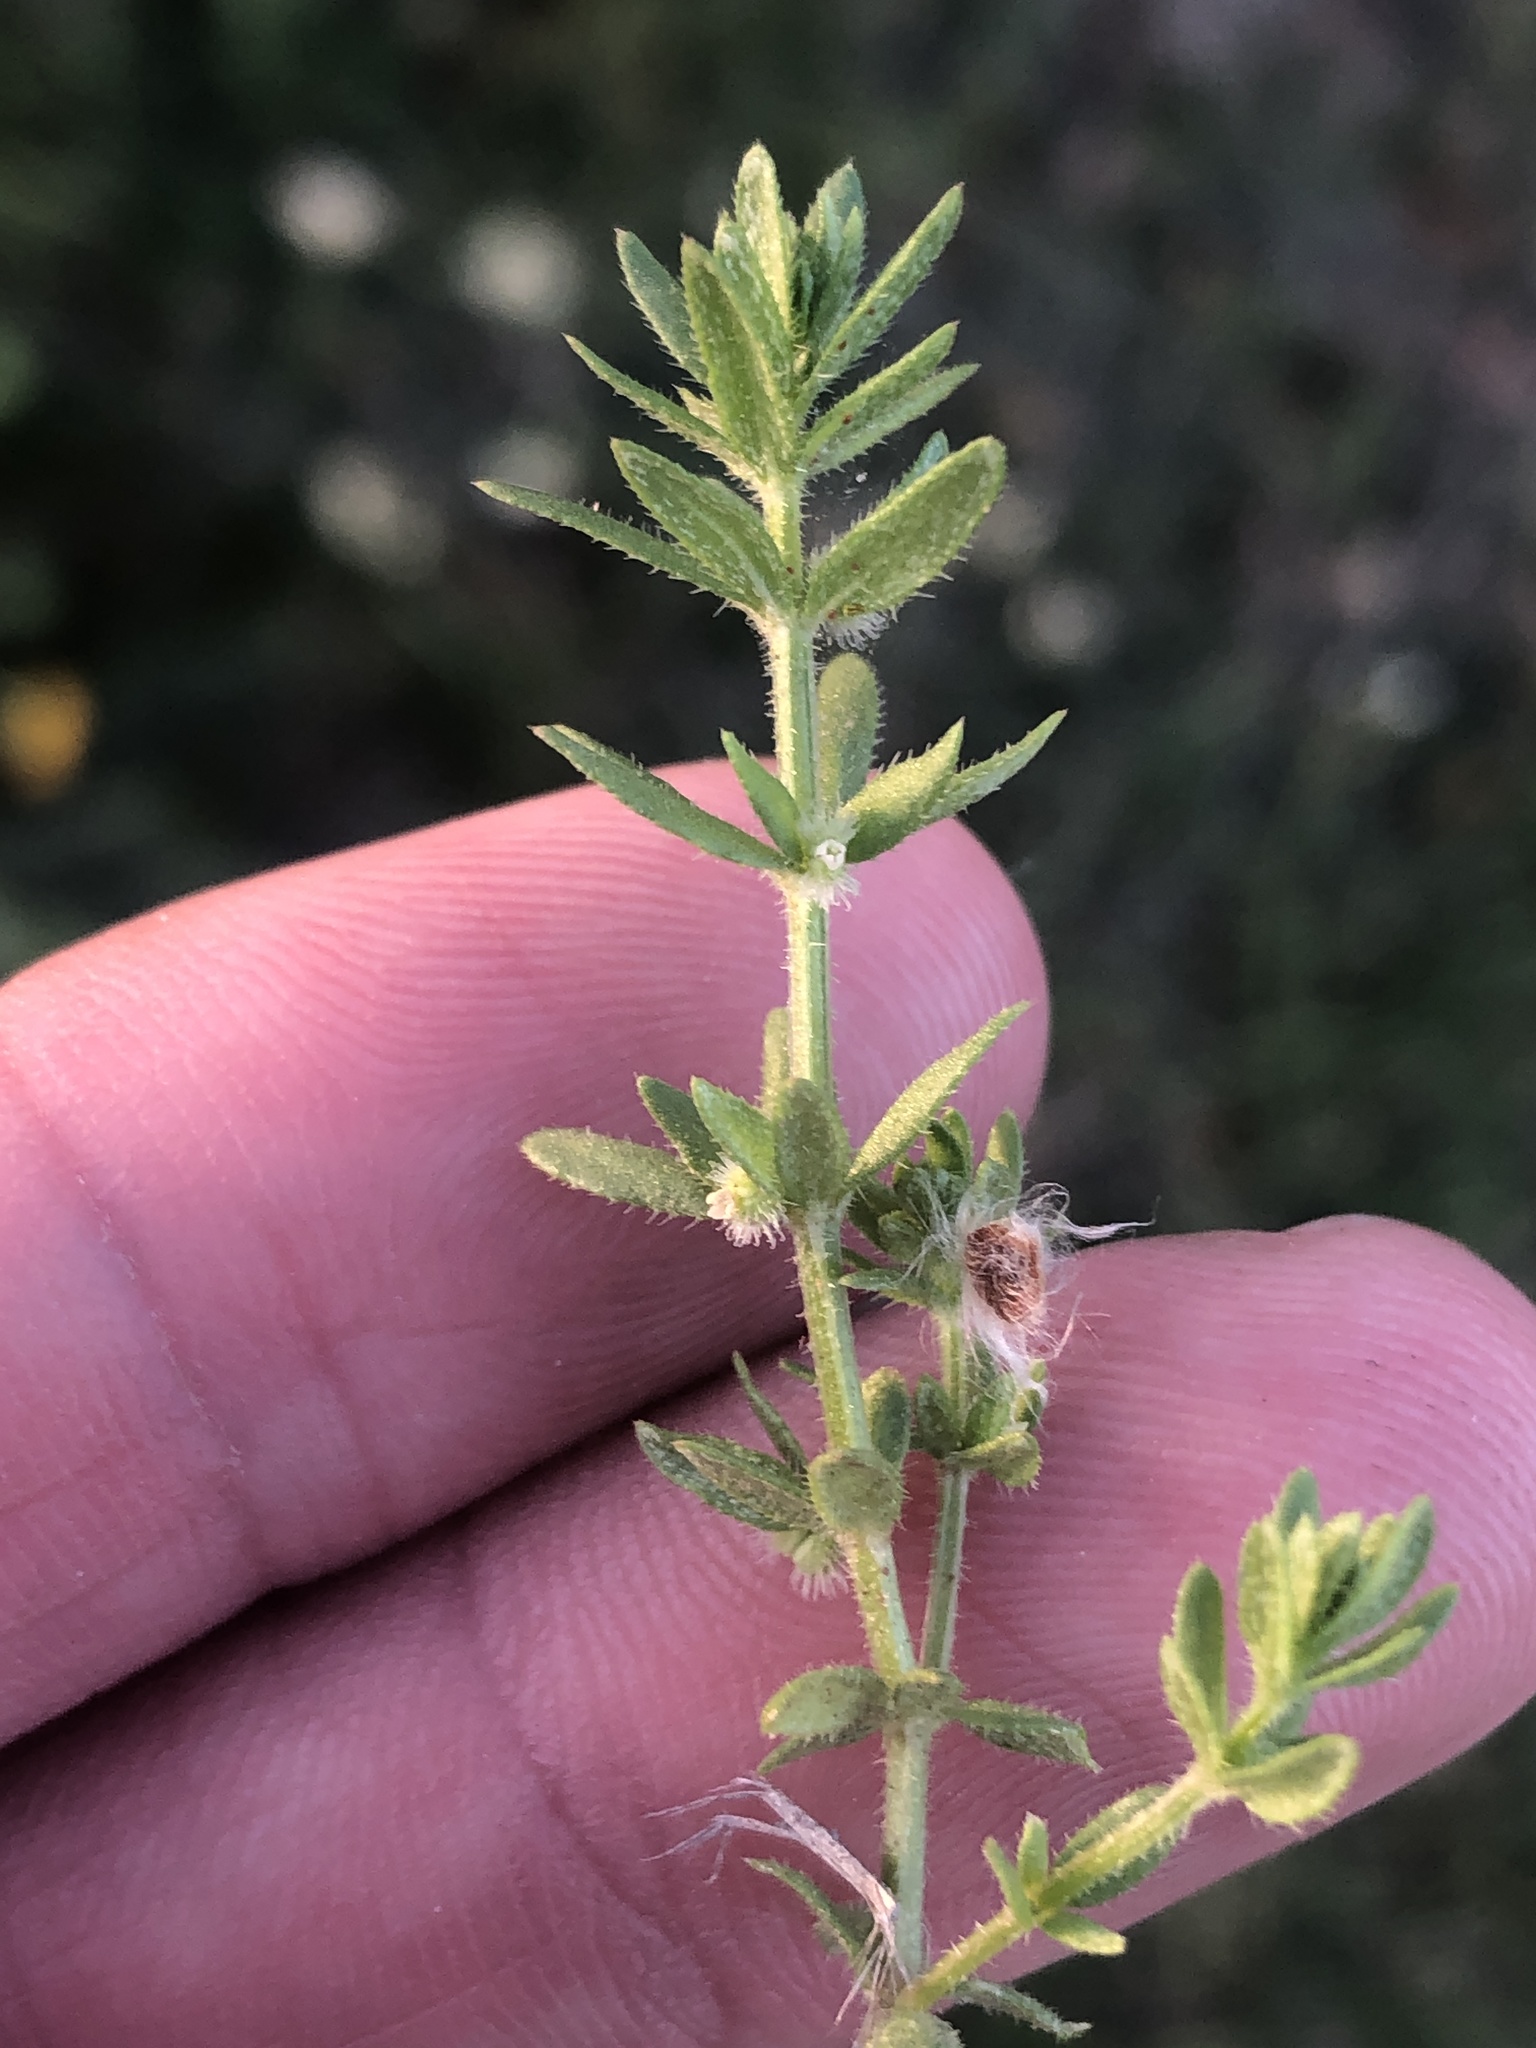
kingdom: Plantae
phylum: Tracheophyta
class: Magnoliopsida
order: Gentianales
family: Rubiaceae
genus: Galium
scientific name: Galium virgatum
